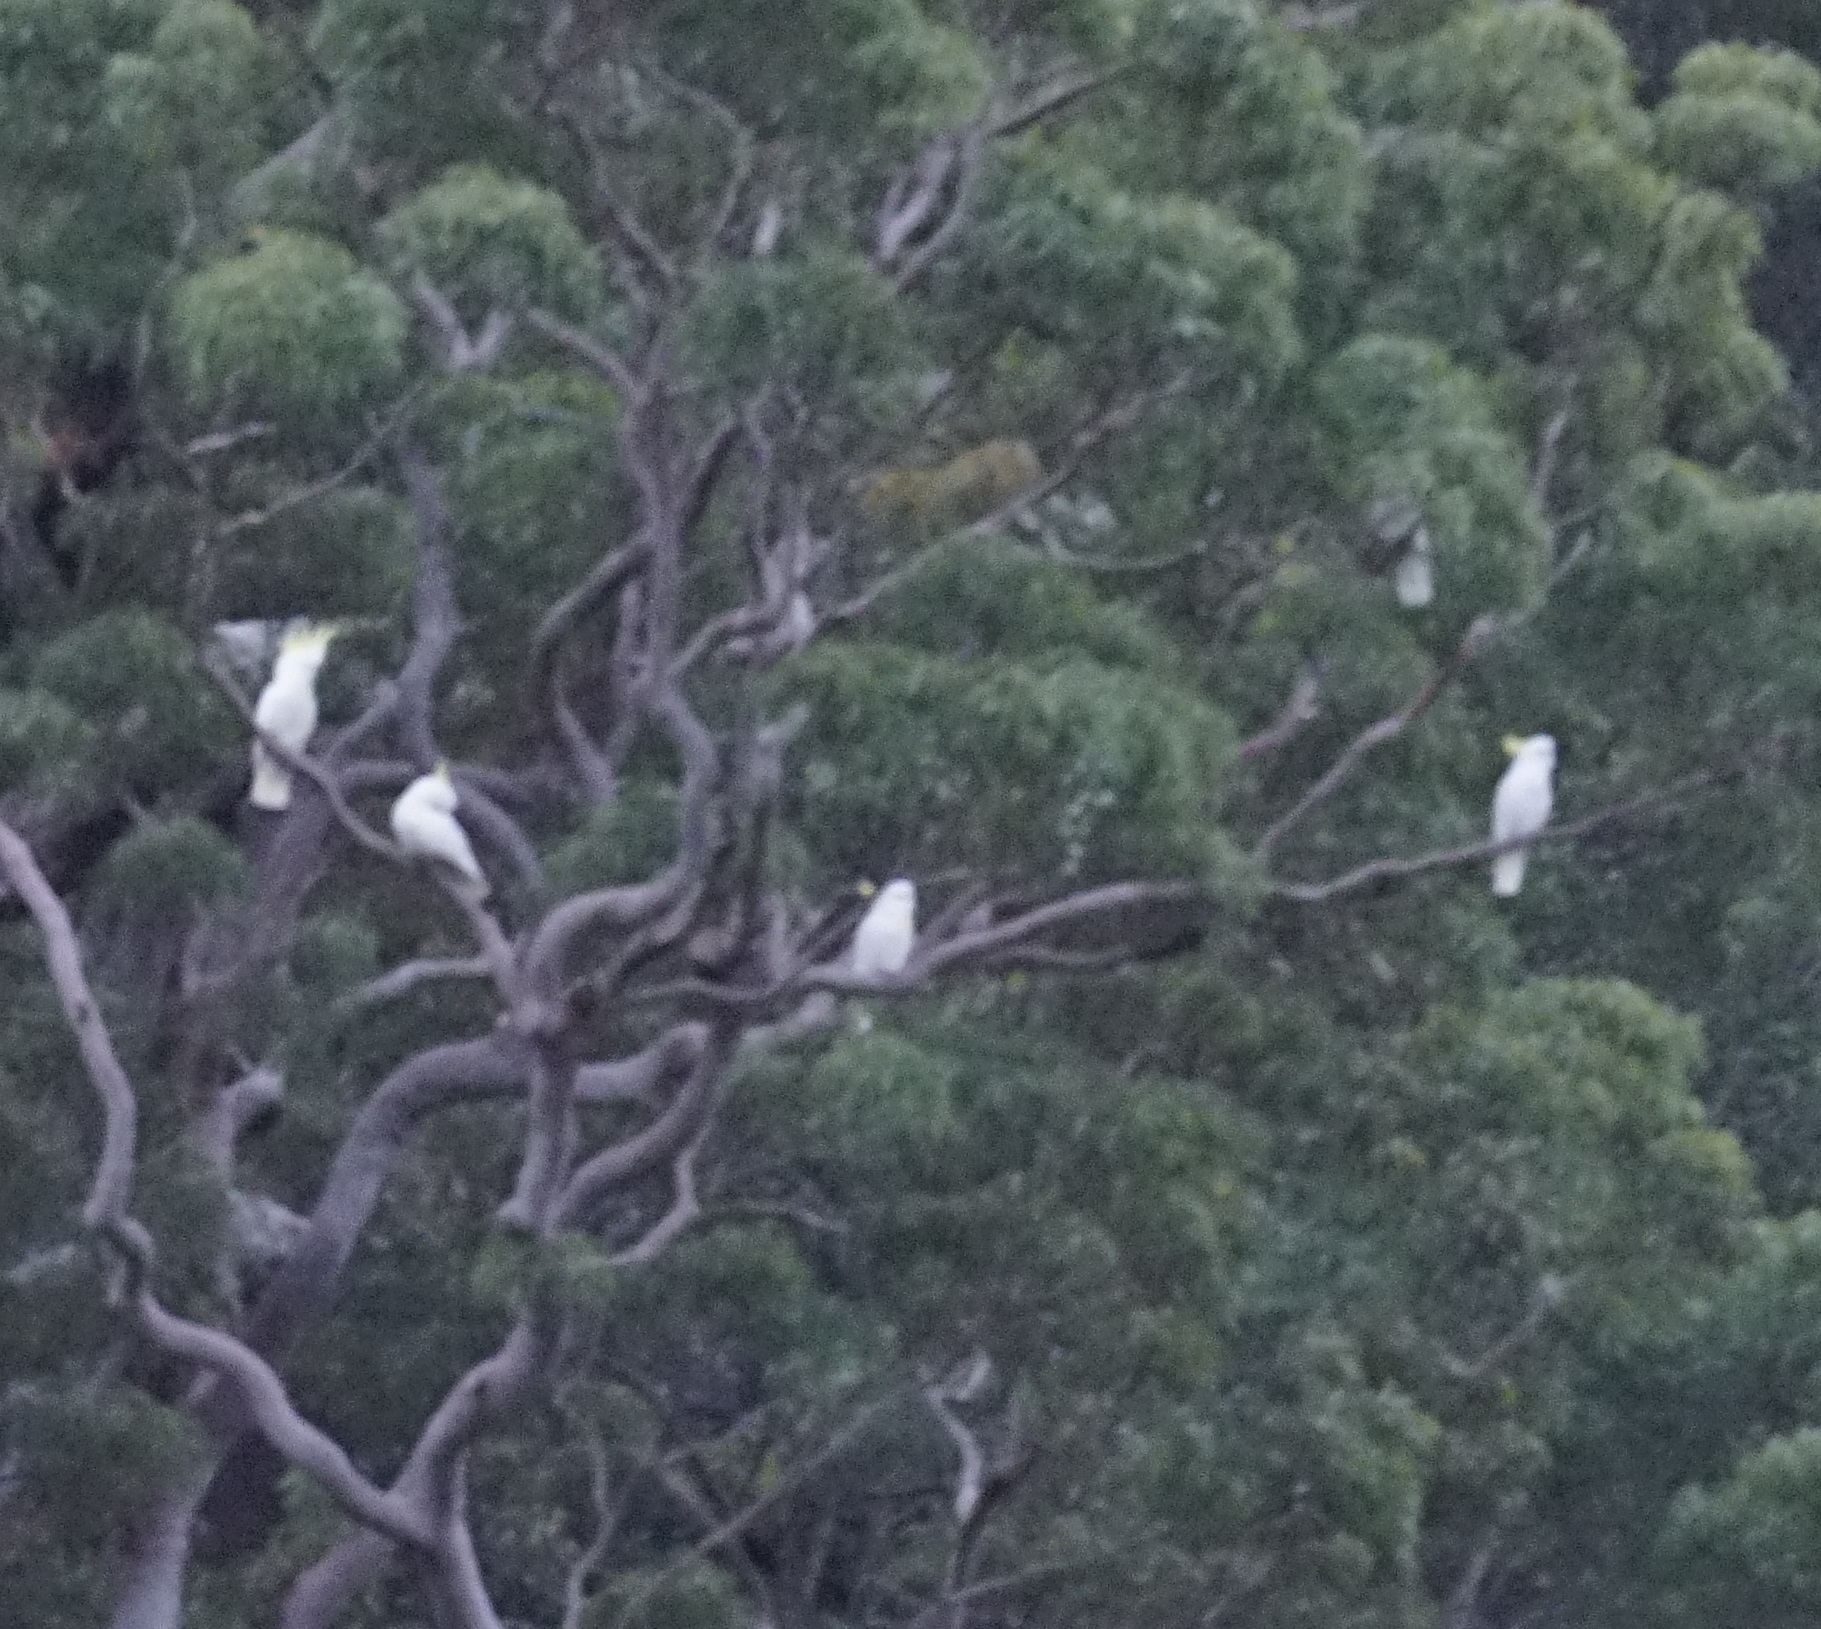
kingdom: Animalia
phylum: Chordata
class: Aves
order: Psittaciformes
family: Psittacidae
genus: Cacatua
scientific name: Cacatua galerita
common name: Sulphur-crested cockatoo
